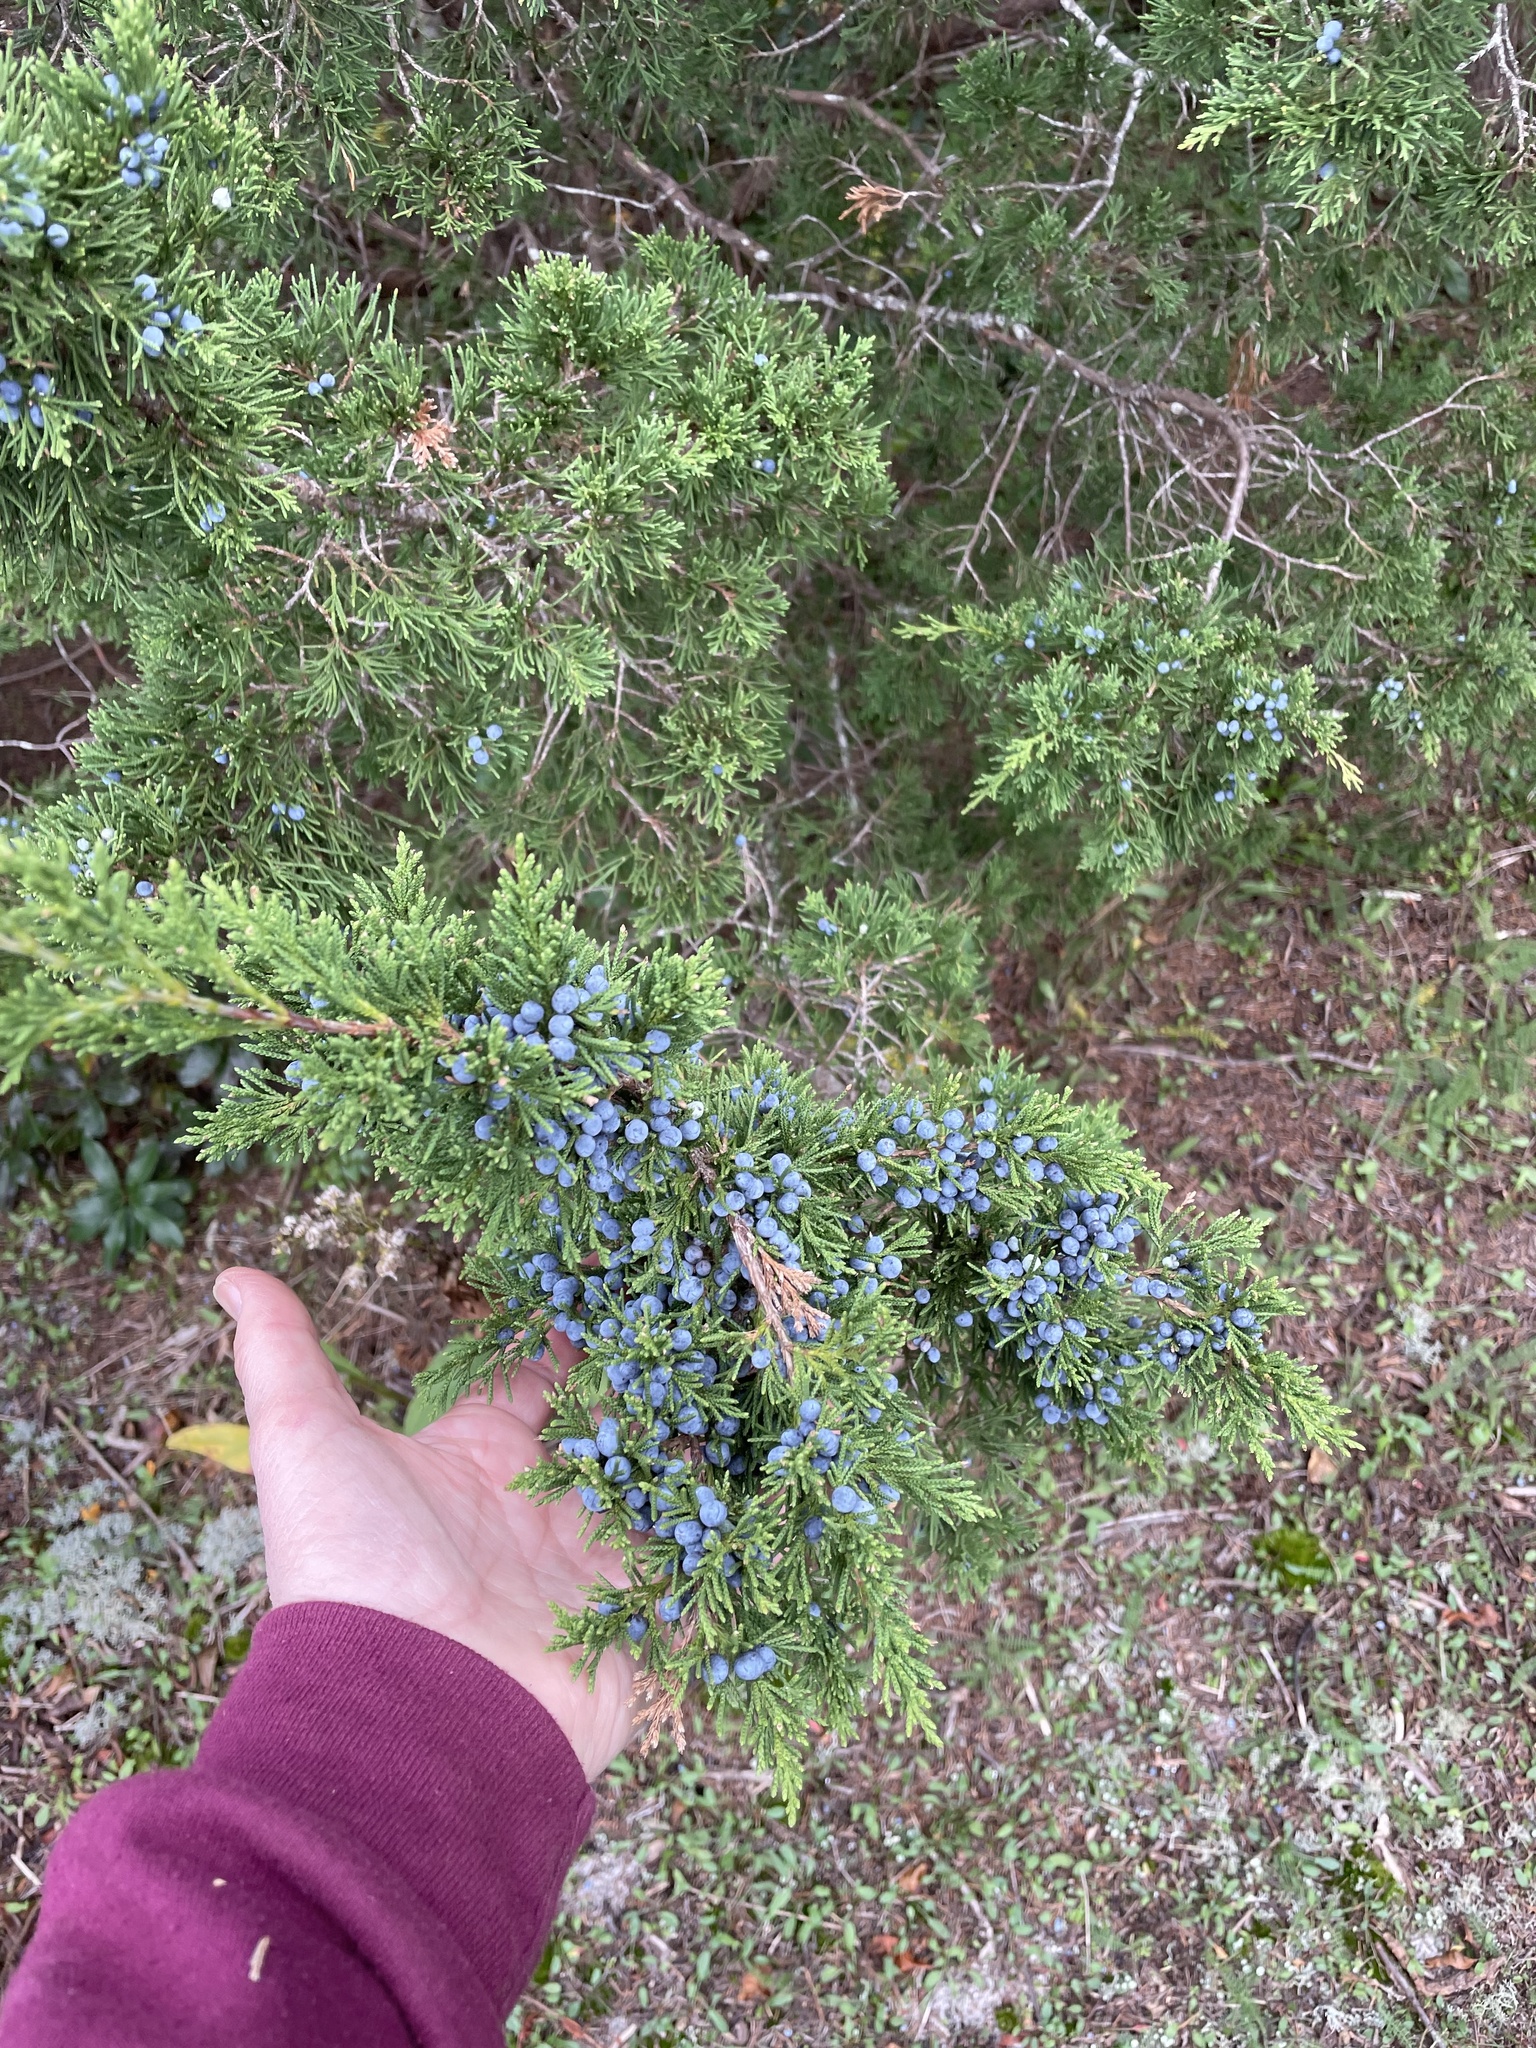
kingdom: Plantae
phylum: Tracheophyta
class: Pinopsida
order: Pinales
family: Cupressaceae
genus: Juniperus
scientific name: Juniperus virginiana
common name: Red juniper
